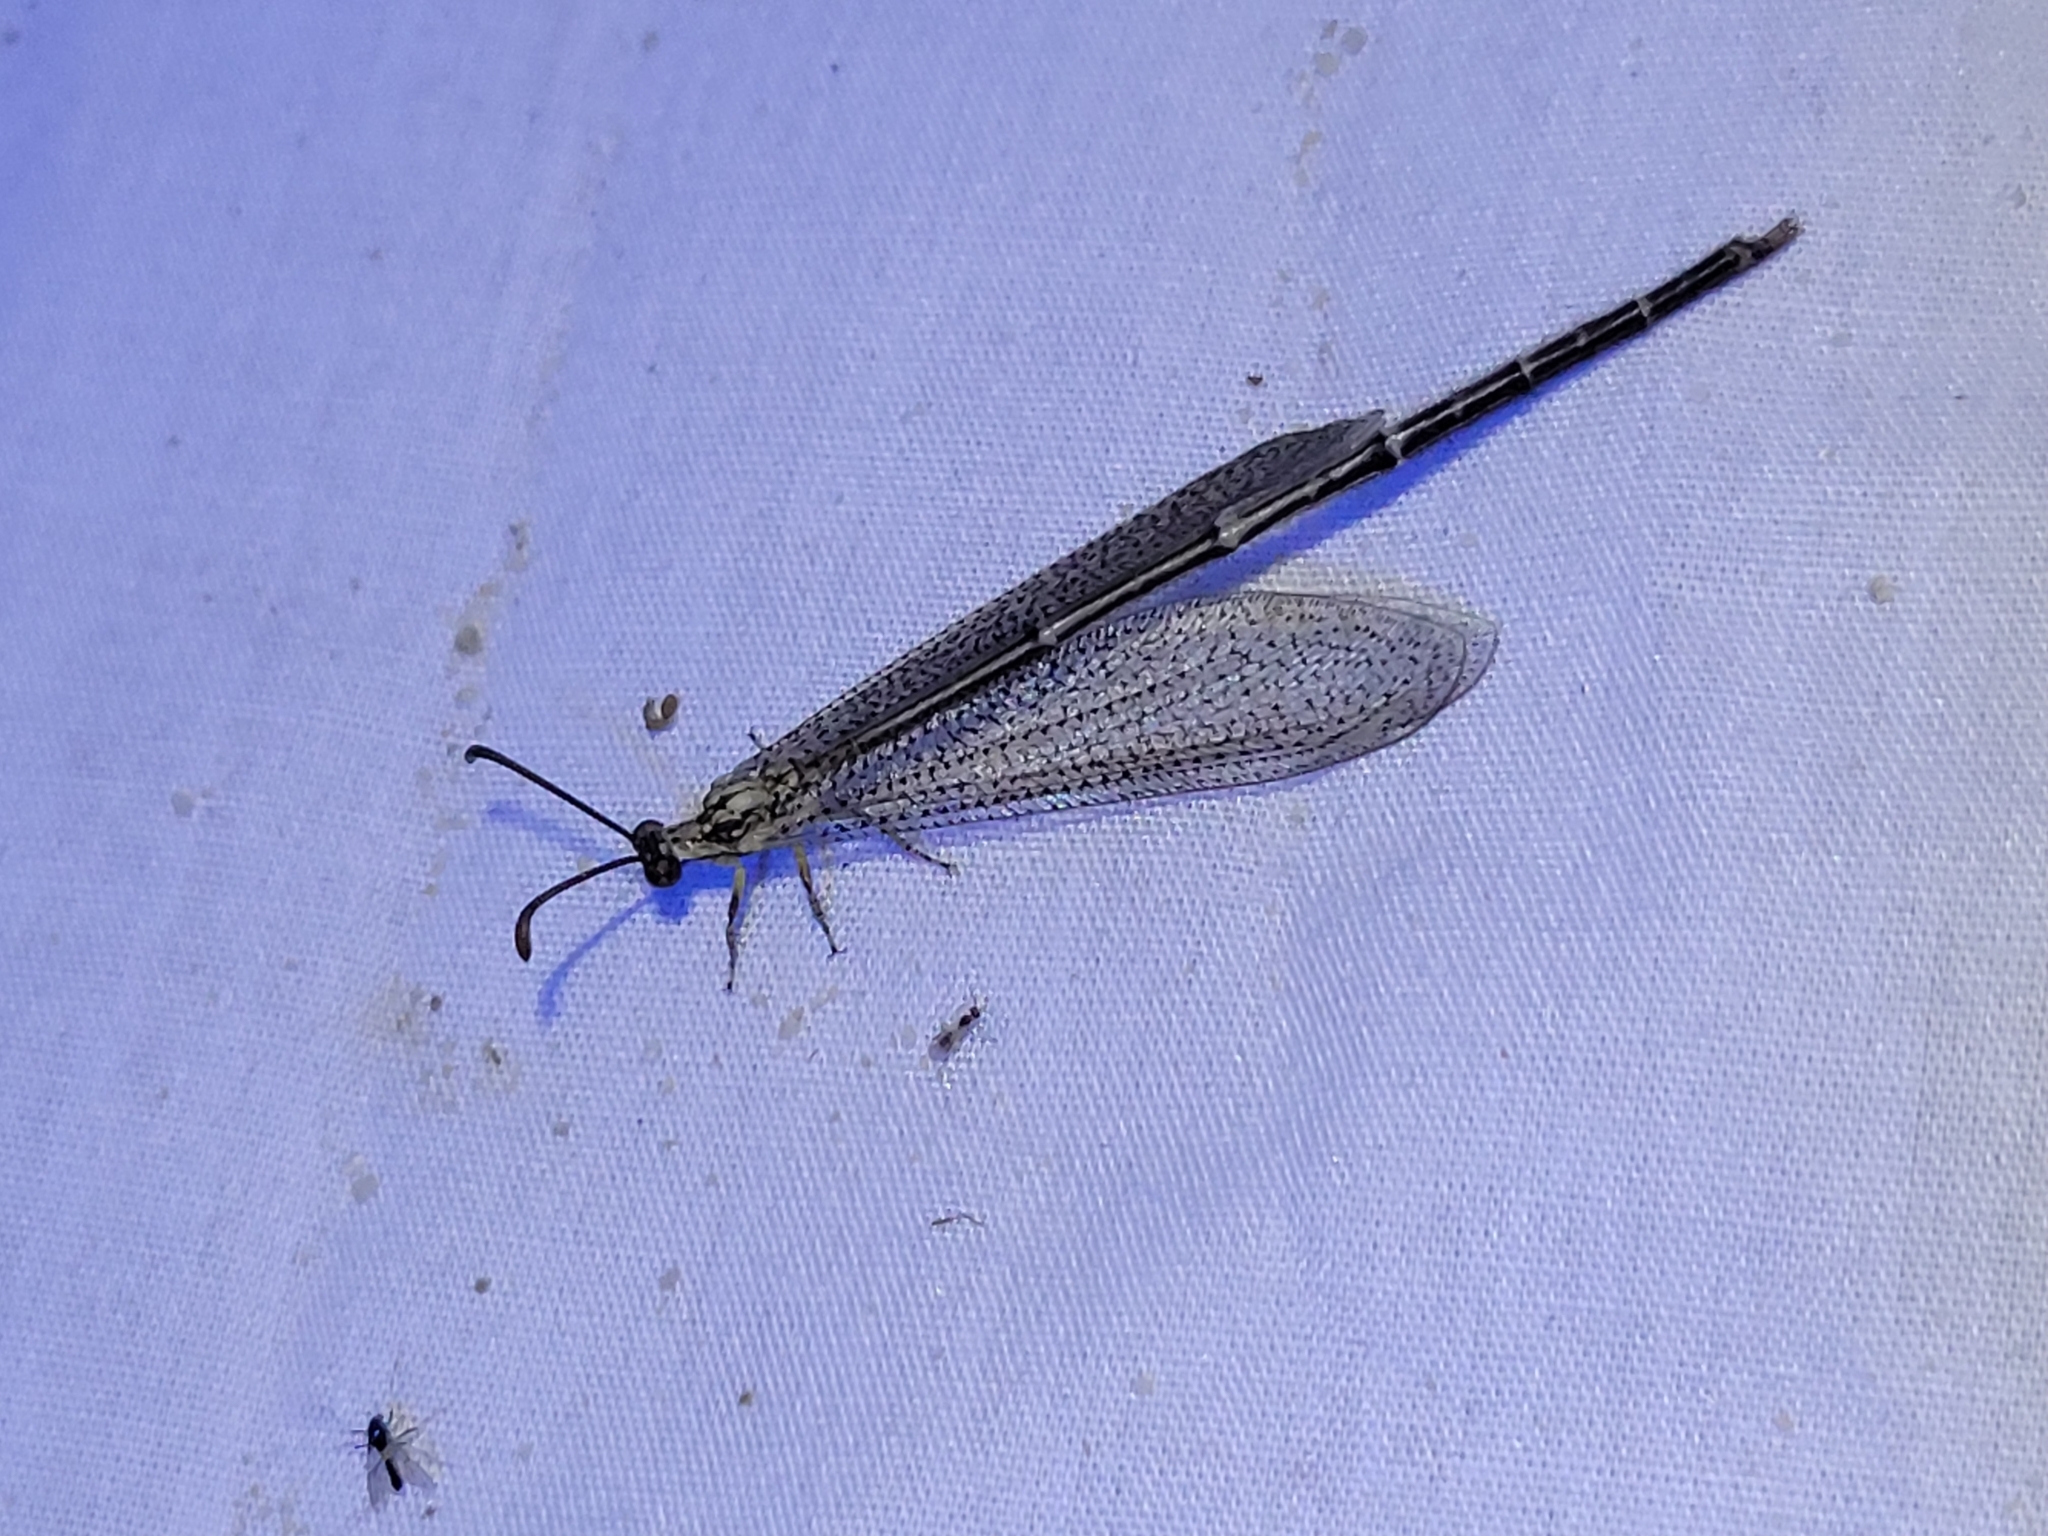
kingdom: Animalia
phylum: Arthropoda
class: Insecta
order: Neuroptera
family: Myrmeleontidae
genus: Brachynemurus
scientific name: Brachynemurus abdominalis
